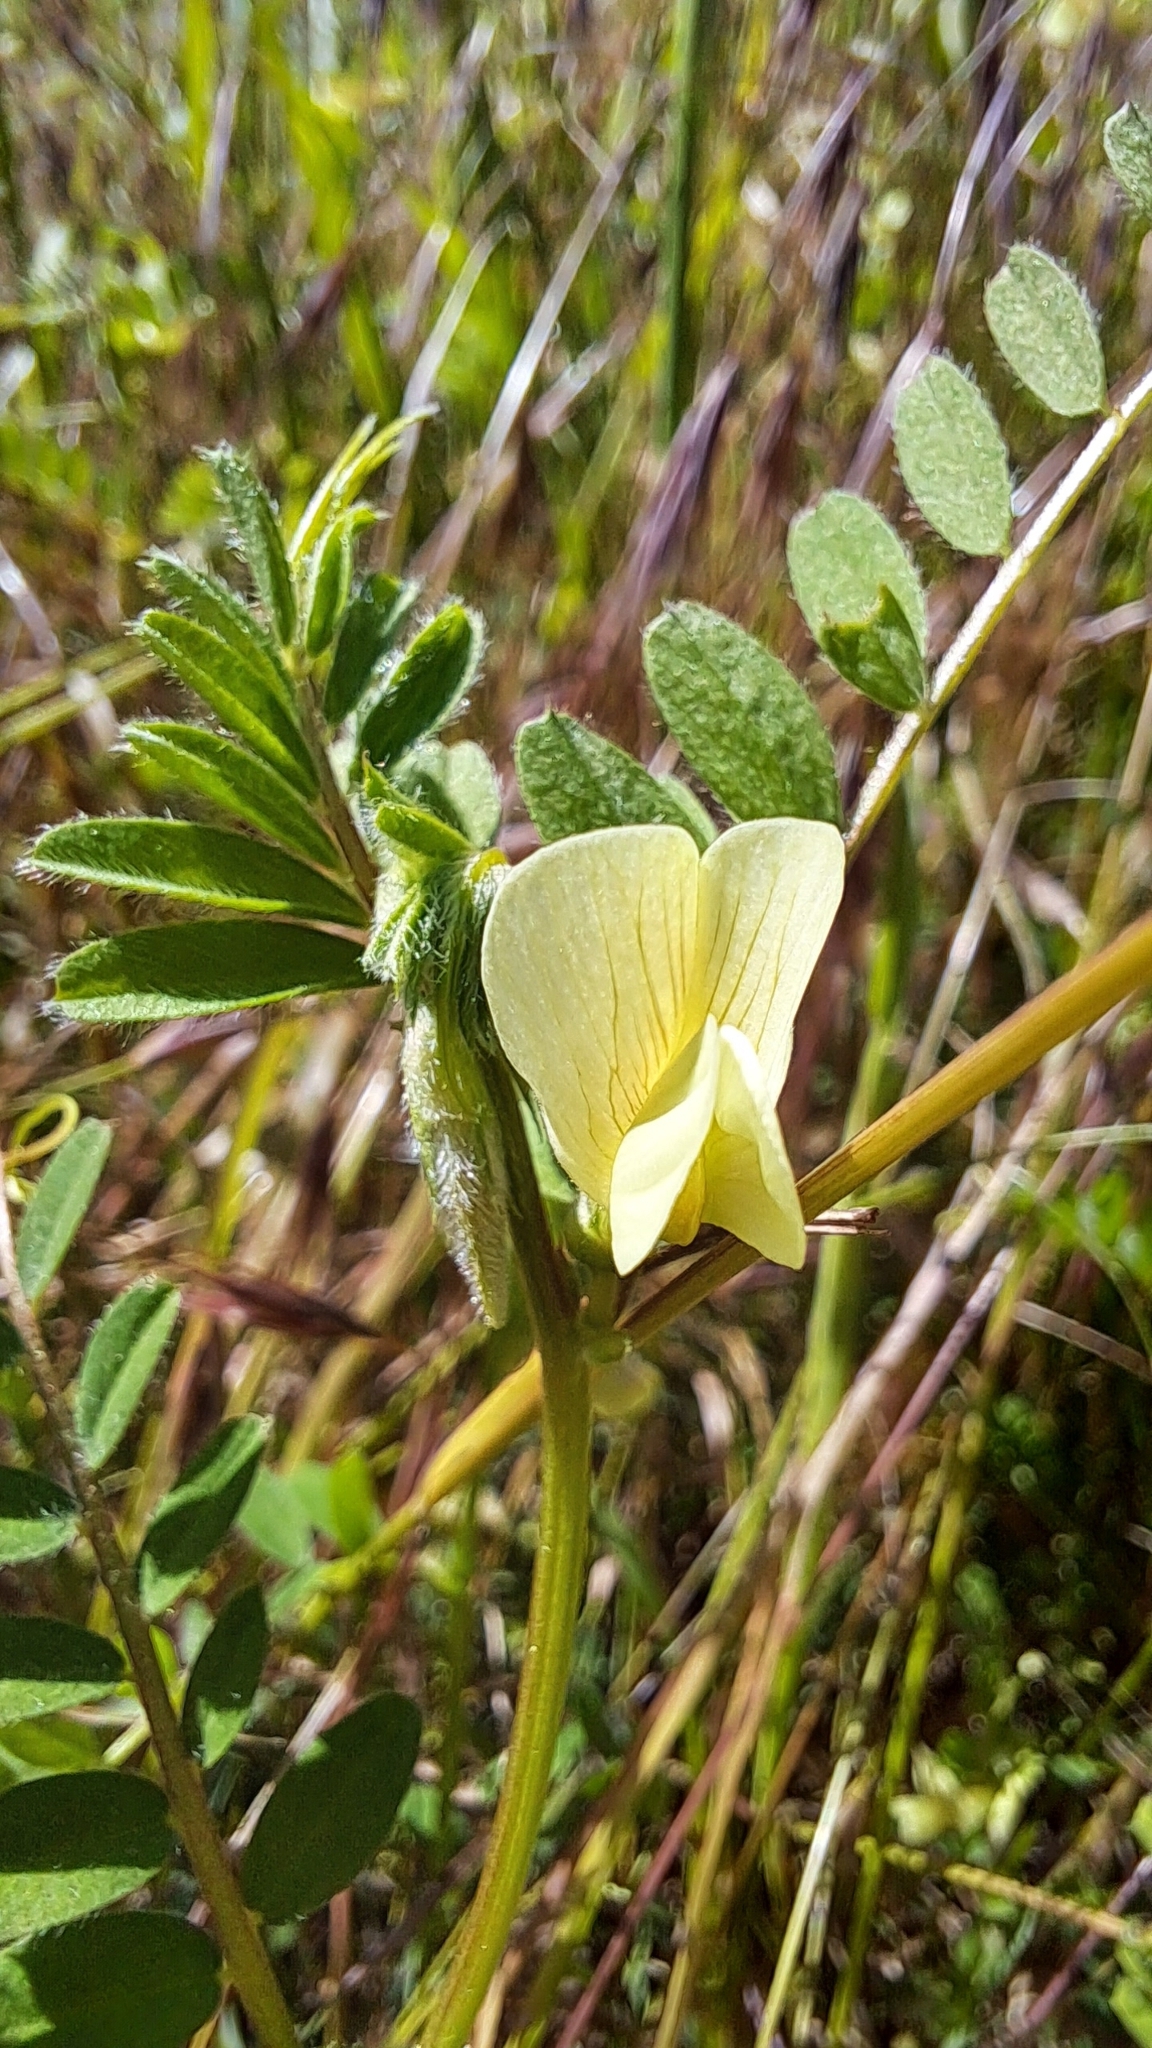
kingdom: Plantae
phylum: Tracheophyta
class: Magnoliopsida
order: Fabales
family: Fabaceae
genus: Vicia
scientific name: Vicia hybrida
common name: Hairy yellow vetch
